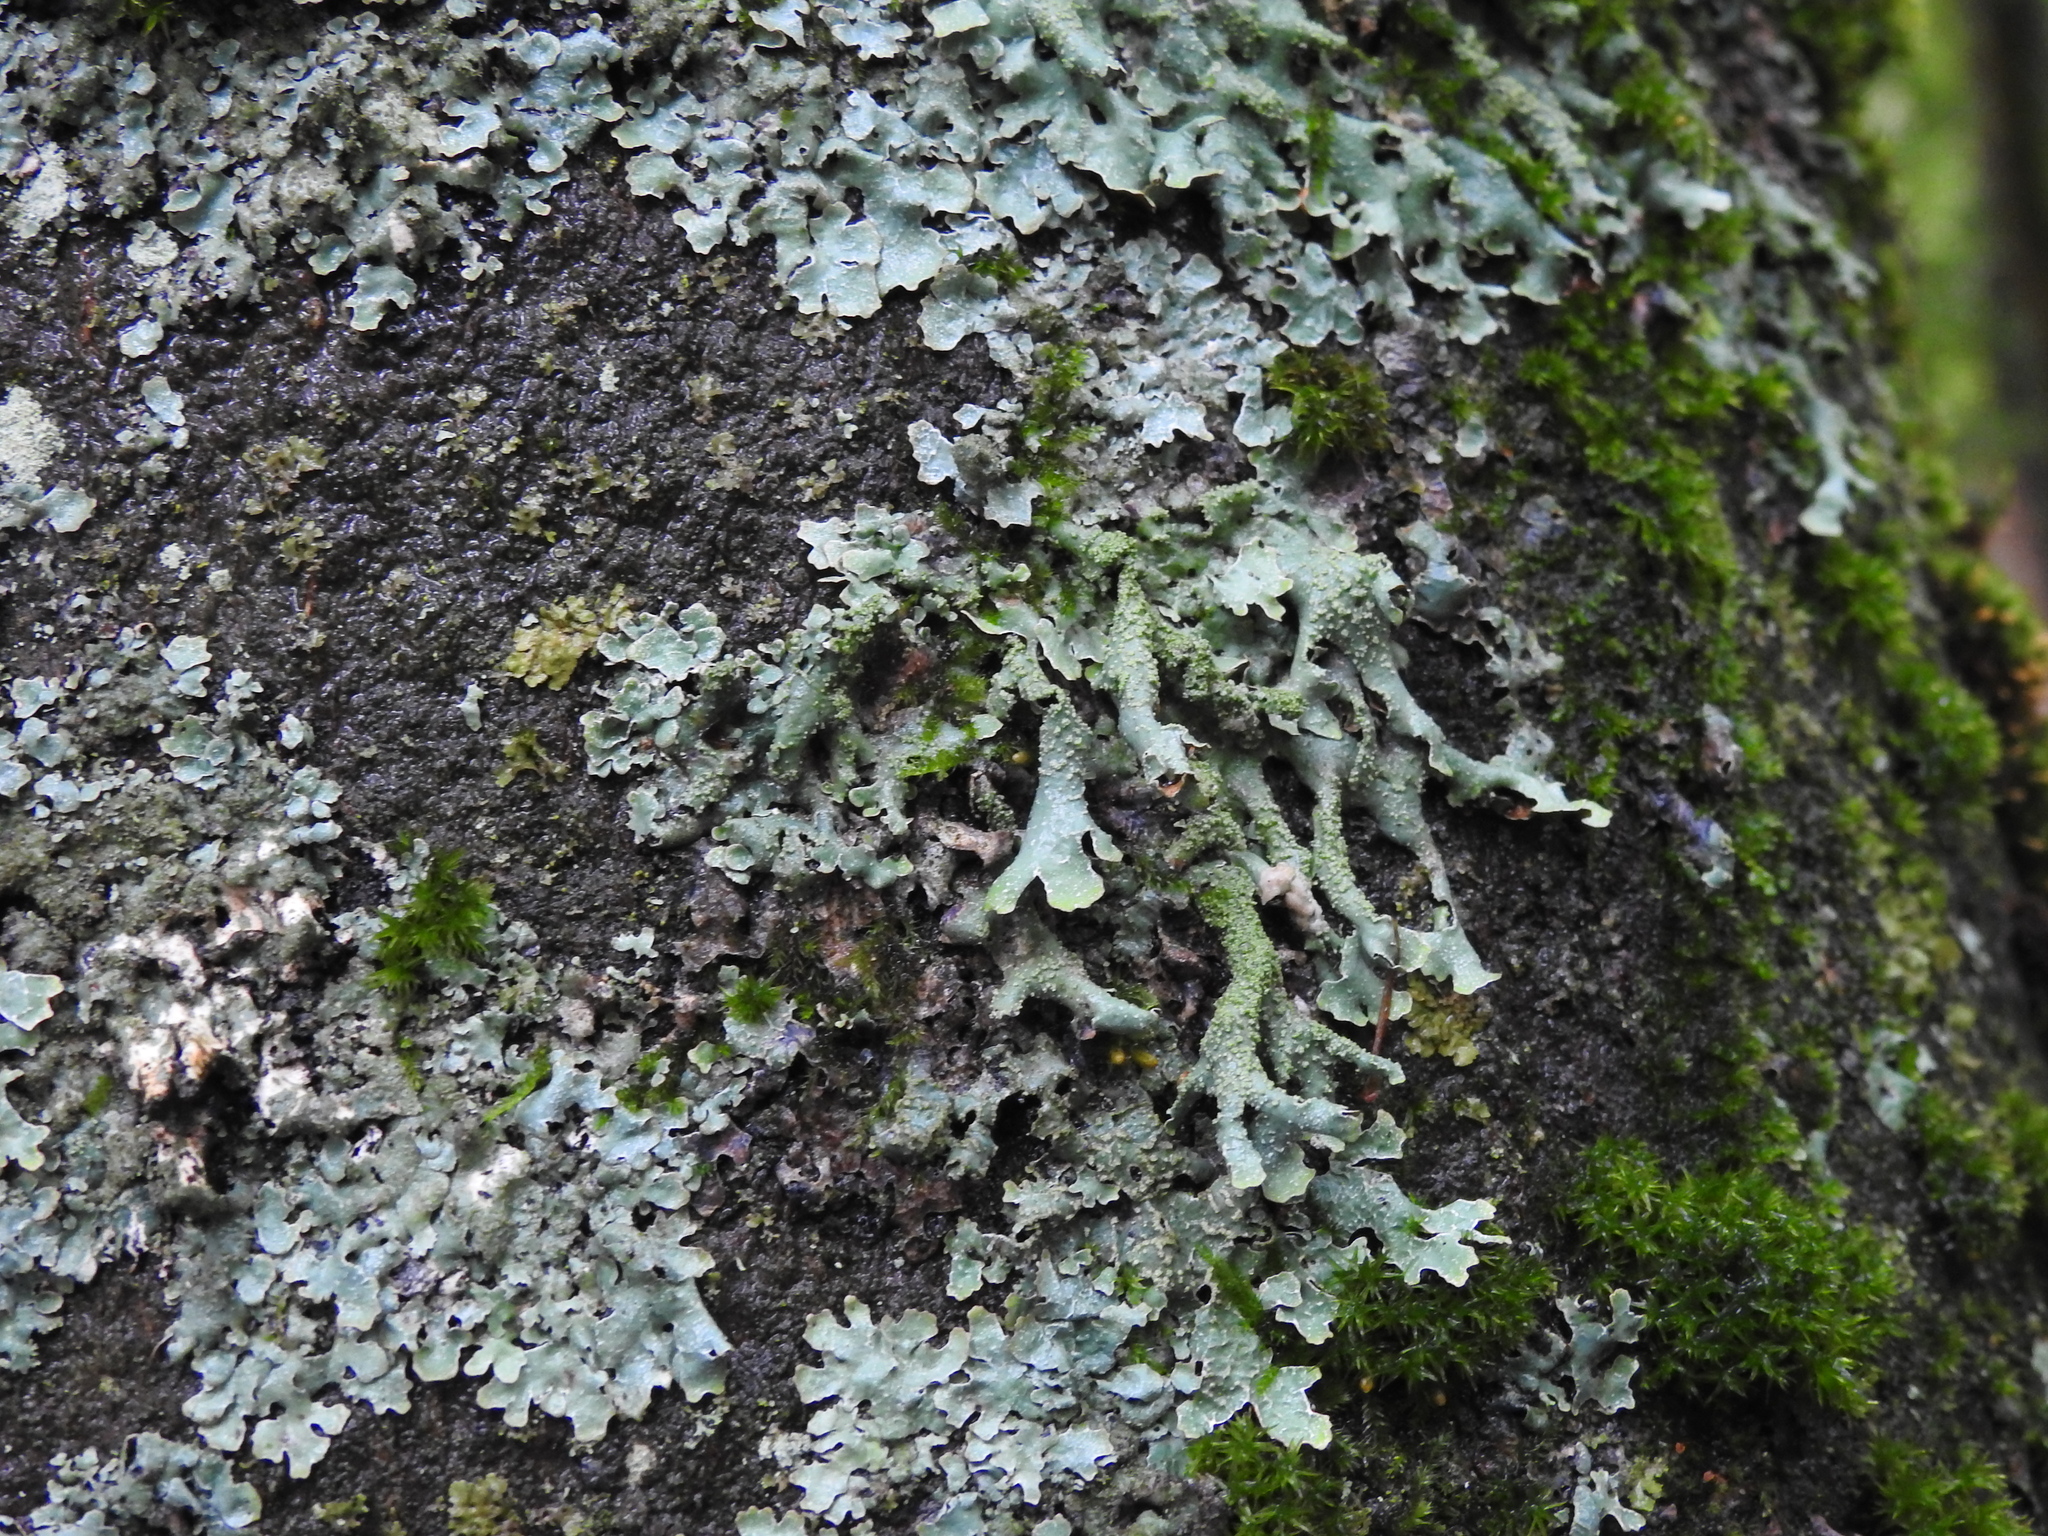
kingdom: Fungi
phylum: Ascomycota
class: Lecanoromycetes
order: Lecanorales
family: Parmeliaceae
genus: Parmelia
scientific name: Parmelia submontana
